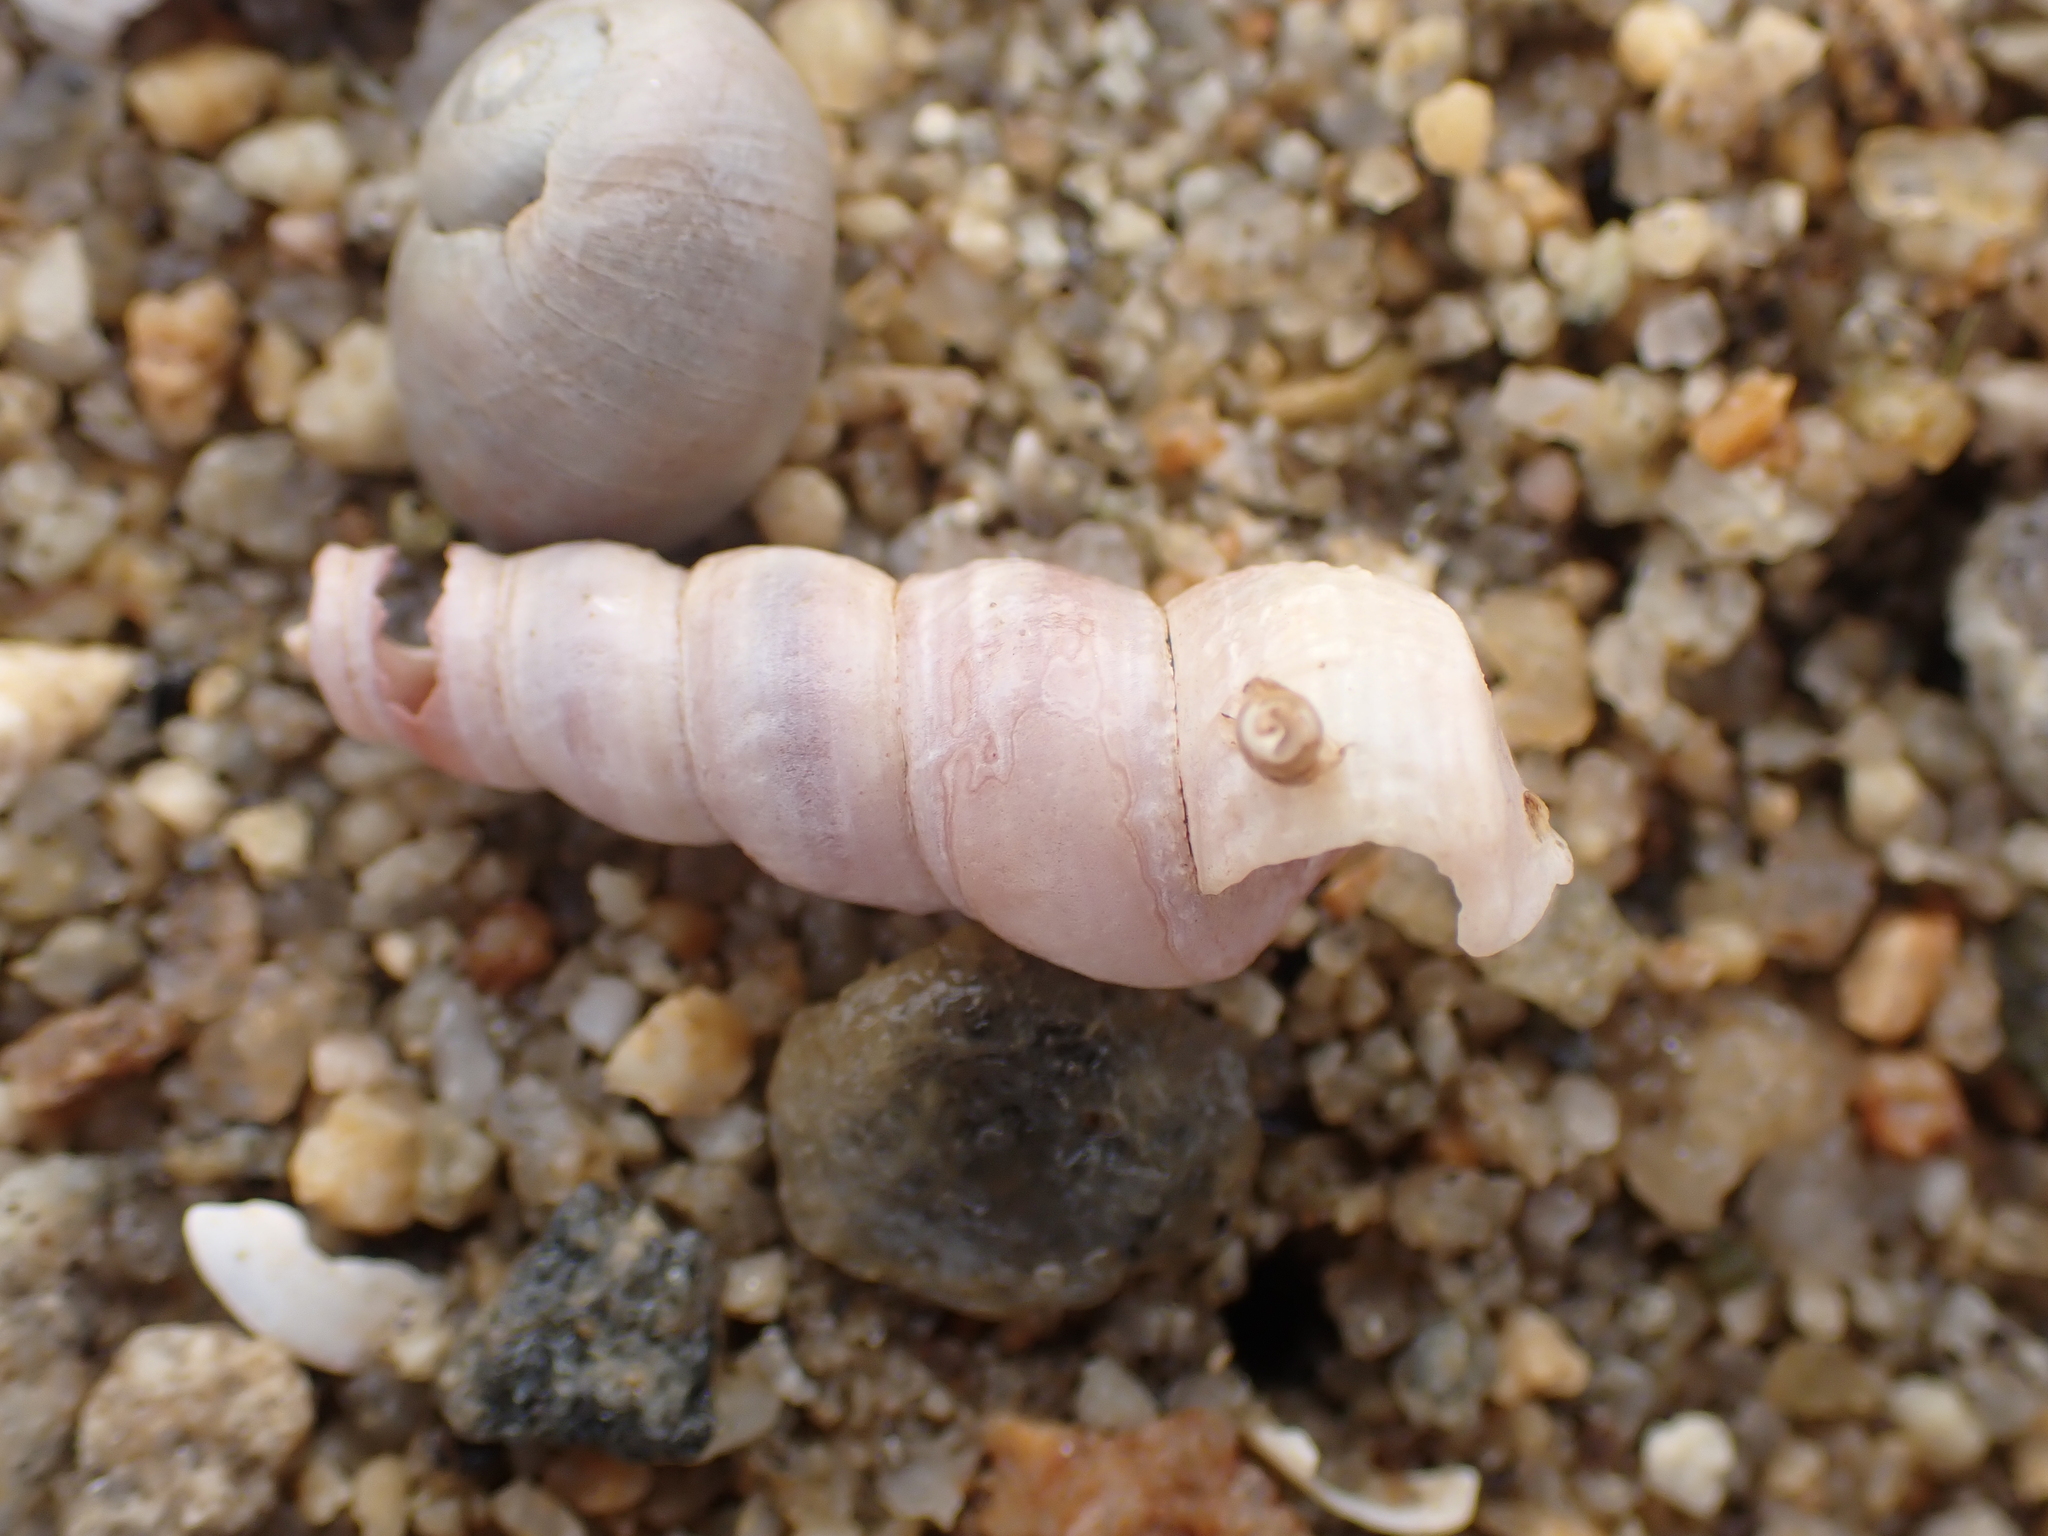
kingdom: Animalia
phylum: Mollusca
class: Gastropoda
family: Turritellidae
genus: Turritellinella
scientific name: Turritellinella tricarinata
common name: Auger shell
